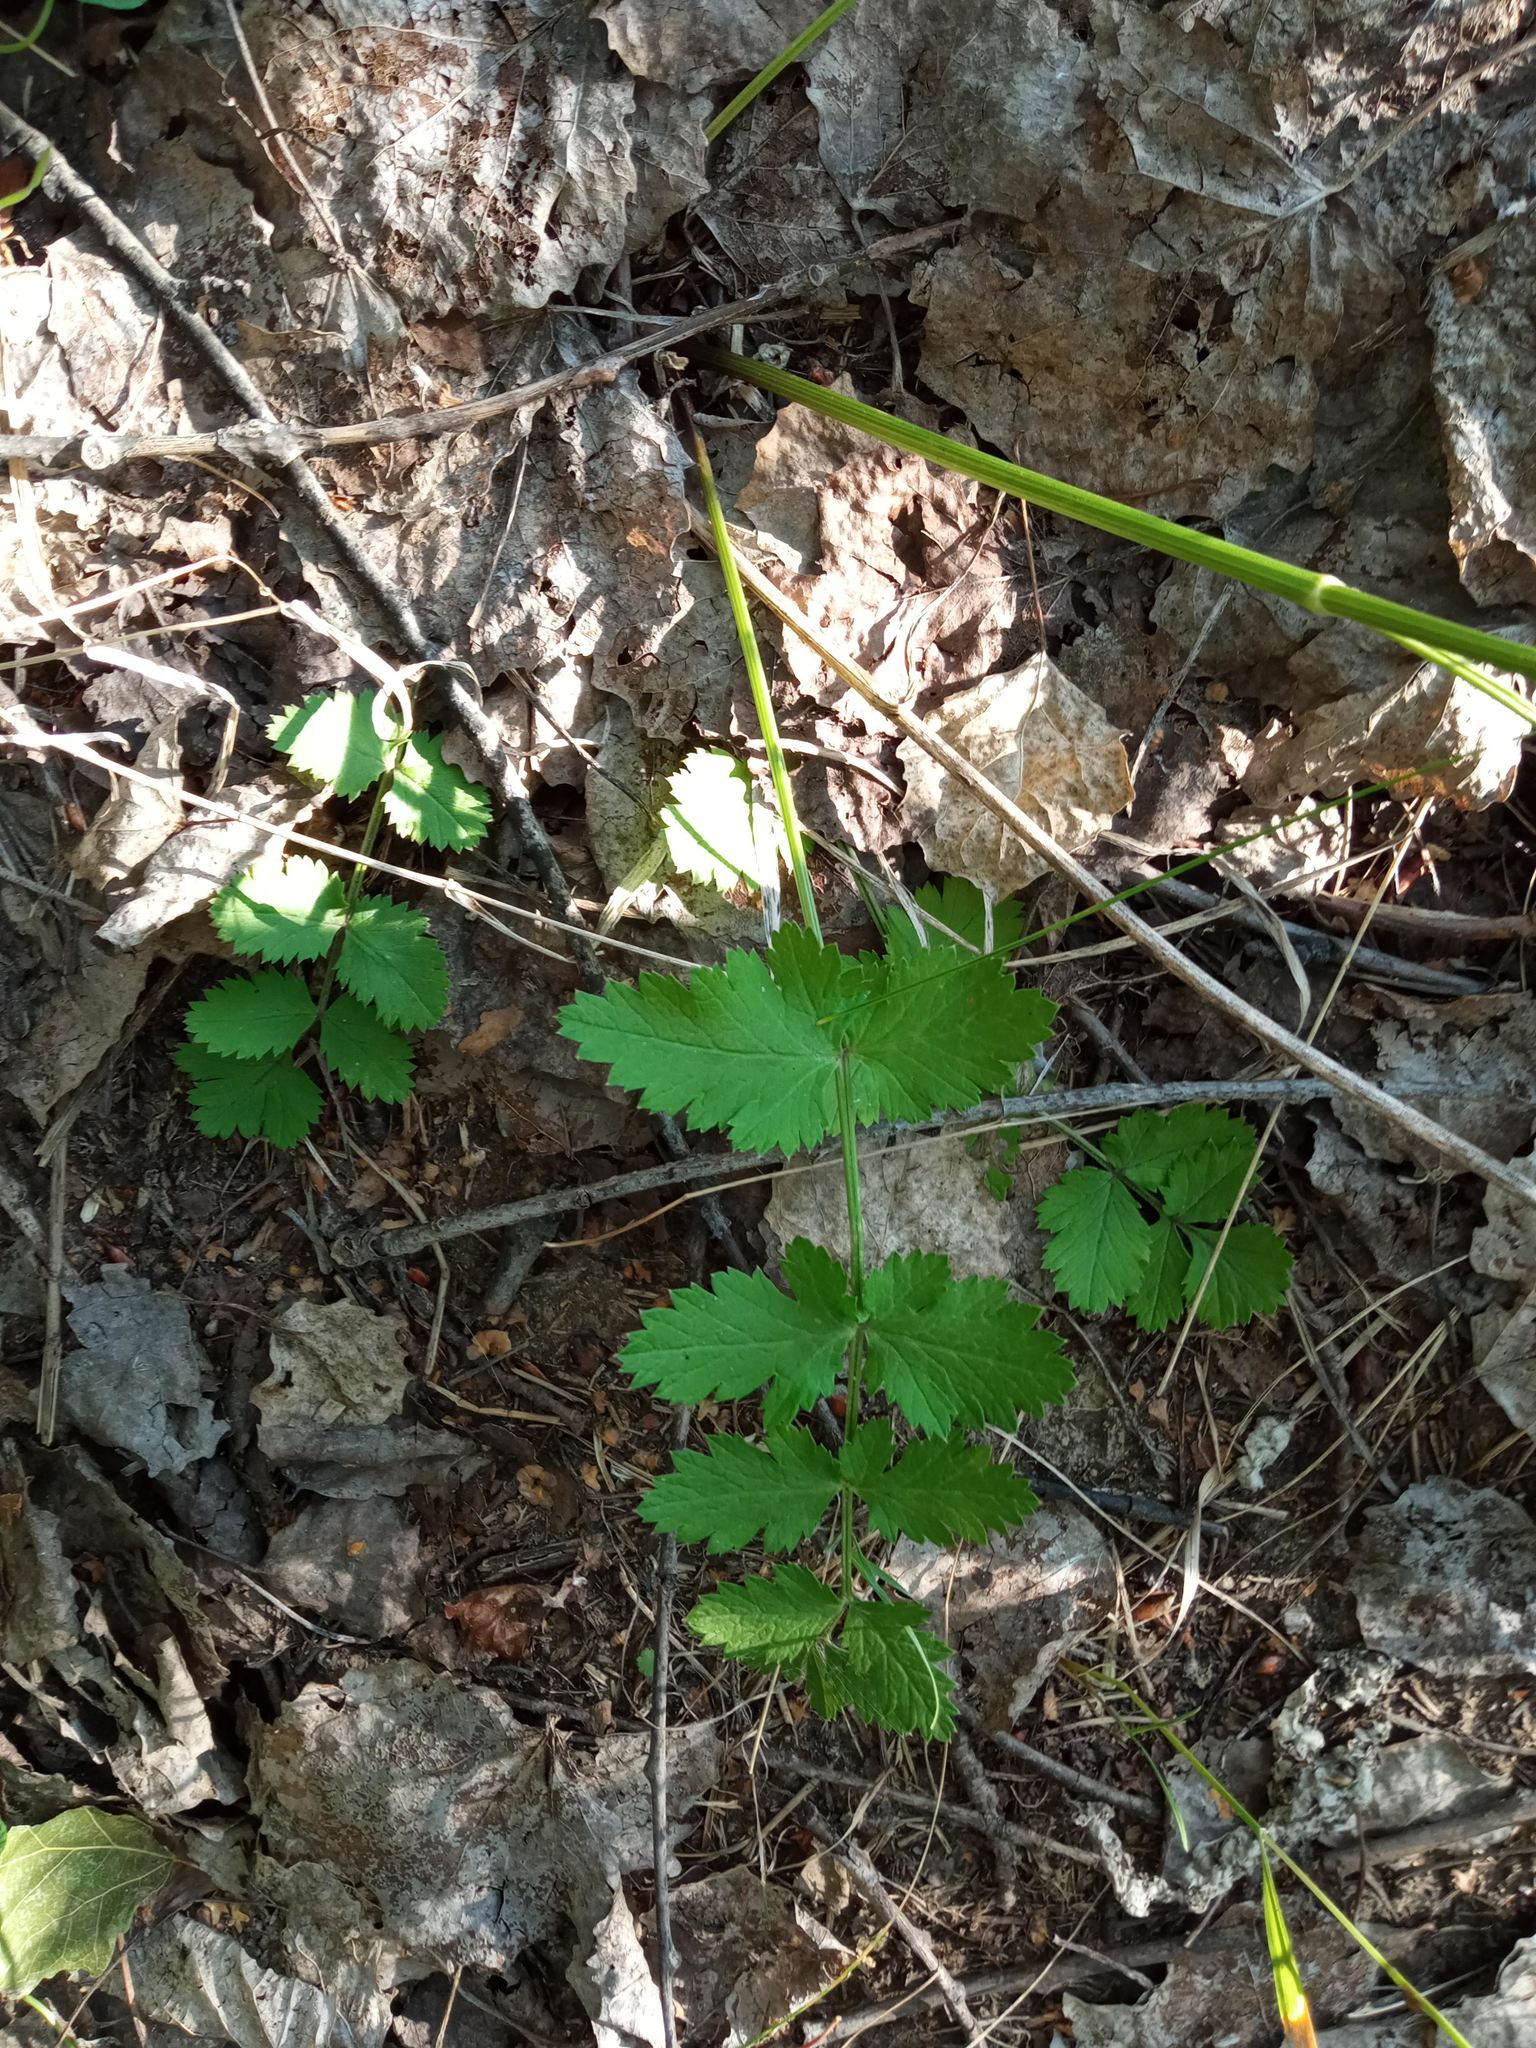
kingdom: Plantae
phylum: Tracheophyta
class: Magnoliopsida
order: Apiales
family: Apiaceae
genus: Pimpinella
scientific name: Pimpinella saxifraga
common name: Burnet-saxifrage
